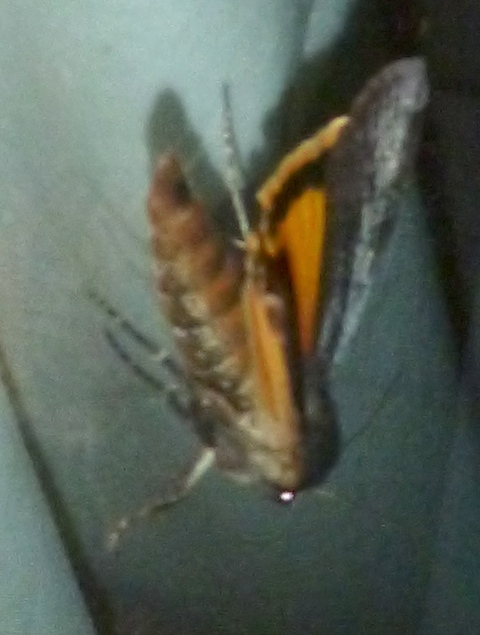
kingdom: Animalia
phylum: Arthropoda
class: Insecta
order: Lepidoptera
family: Noctuidae
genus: Noctua
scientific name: Noctua pronuba
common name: Large yellow underwing
